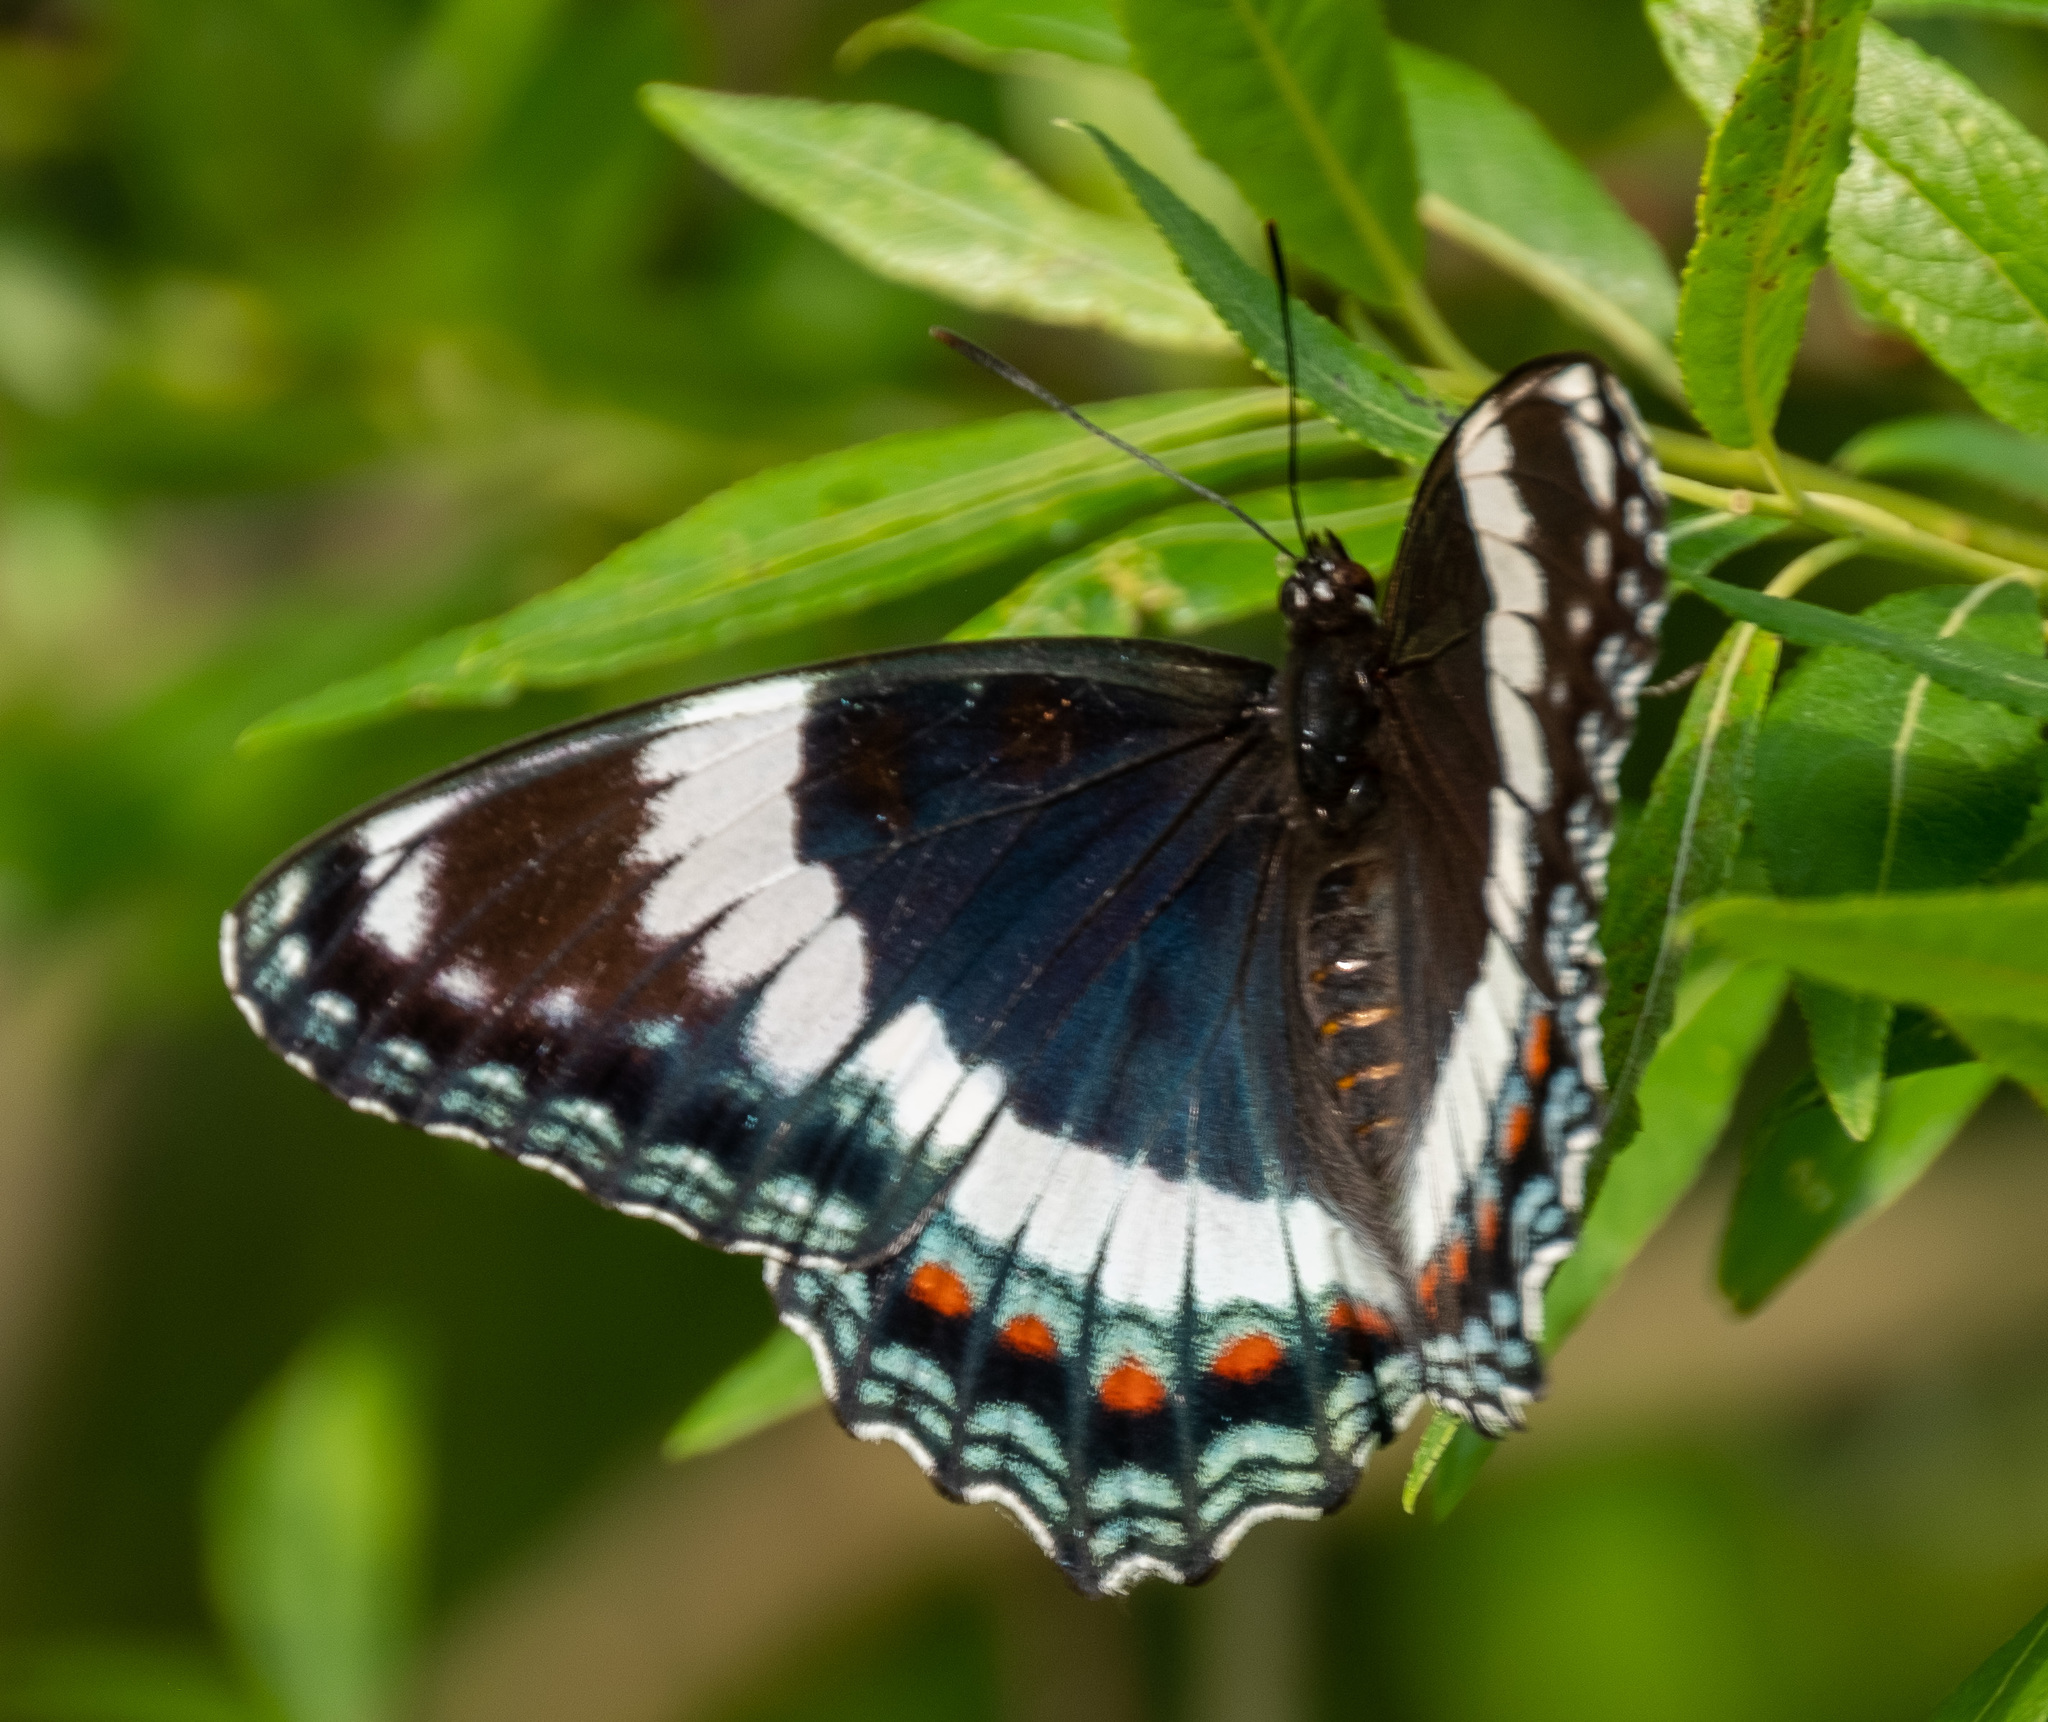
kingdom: Animalia
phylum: Arthropoda
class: Insecta
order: Lepidoptera
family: Nymphalidae
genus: Limenitis
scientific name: Limenitis arthemis
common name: Red-spotted admiral
